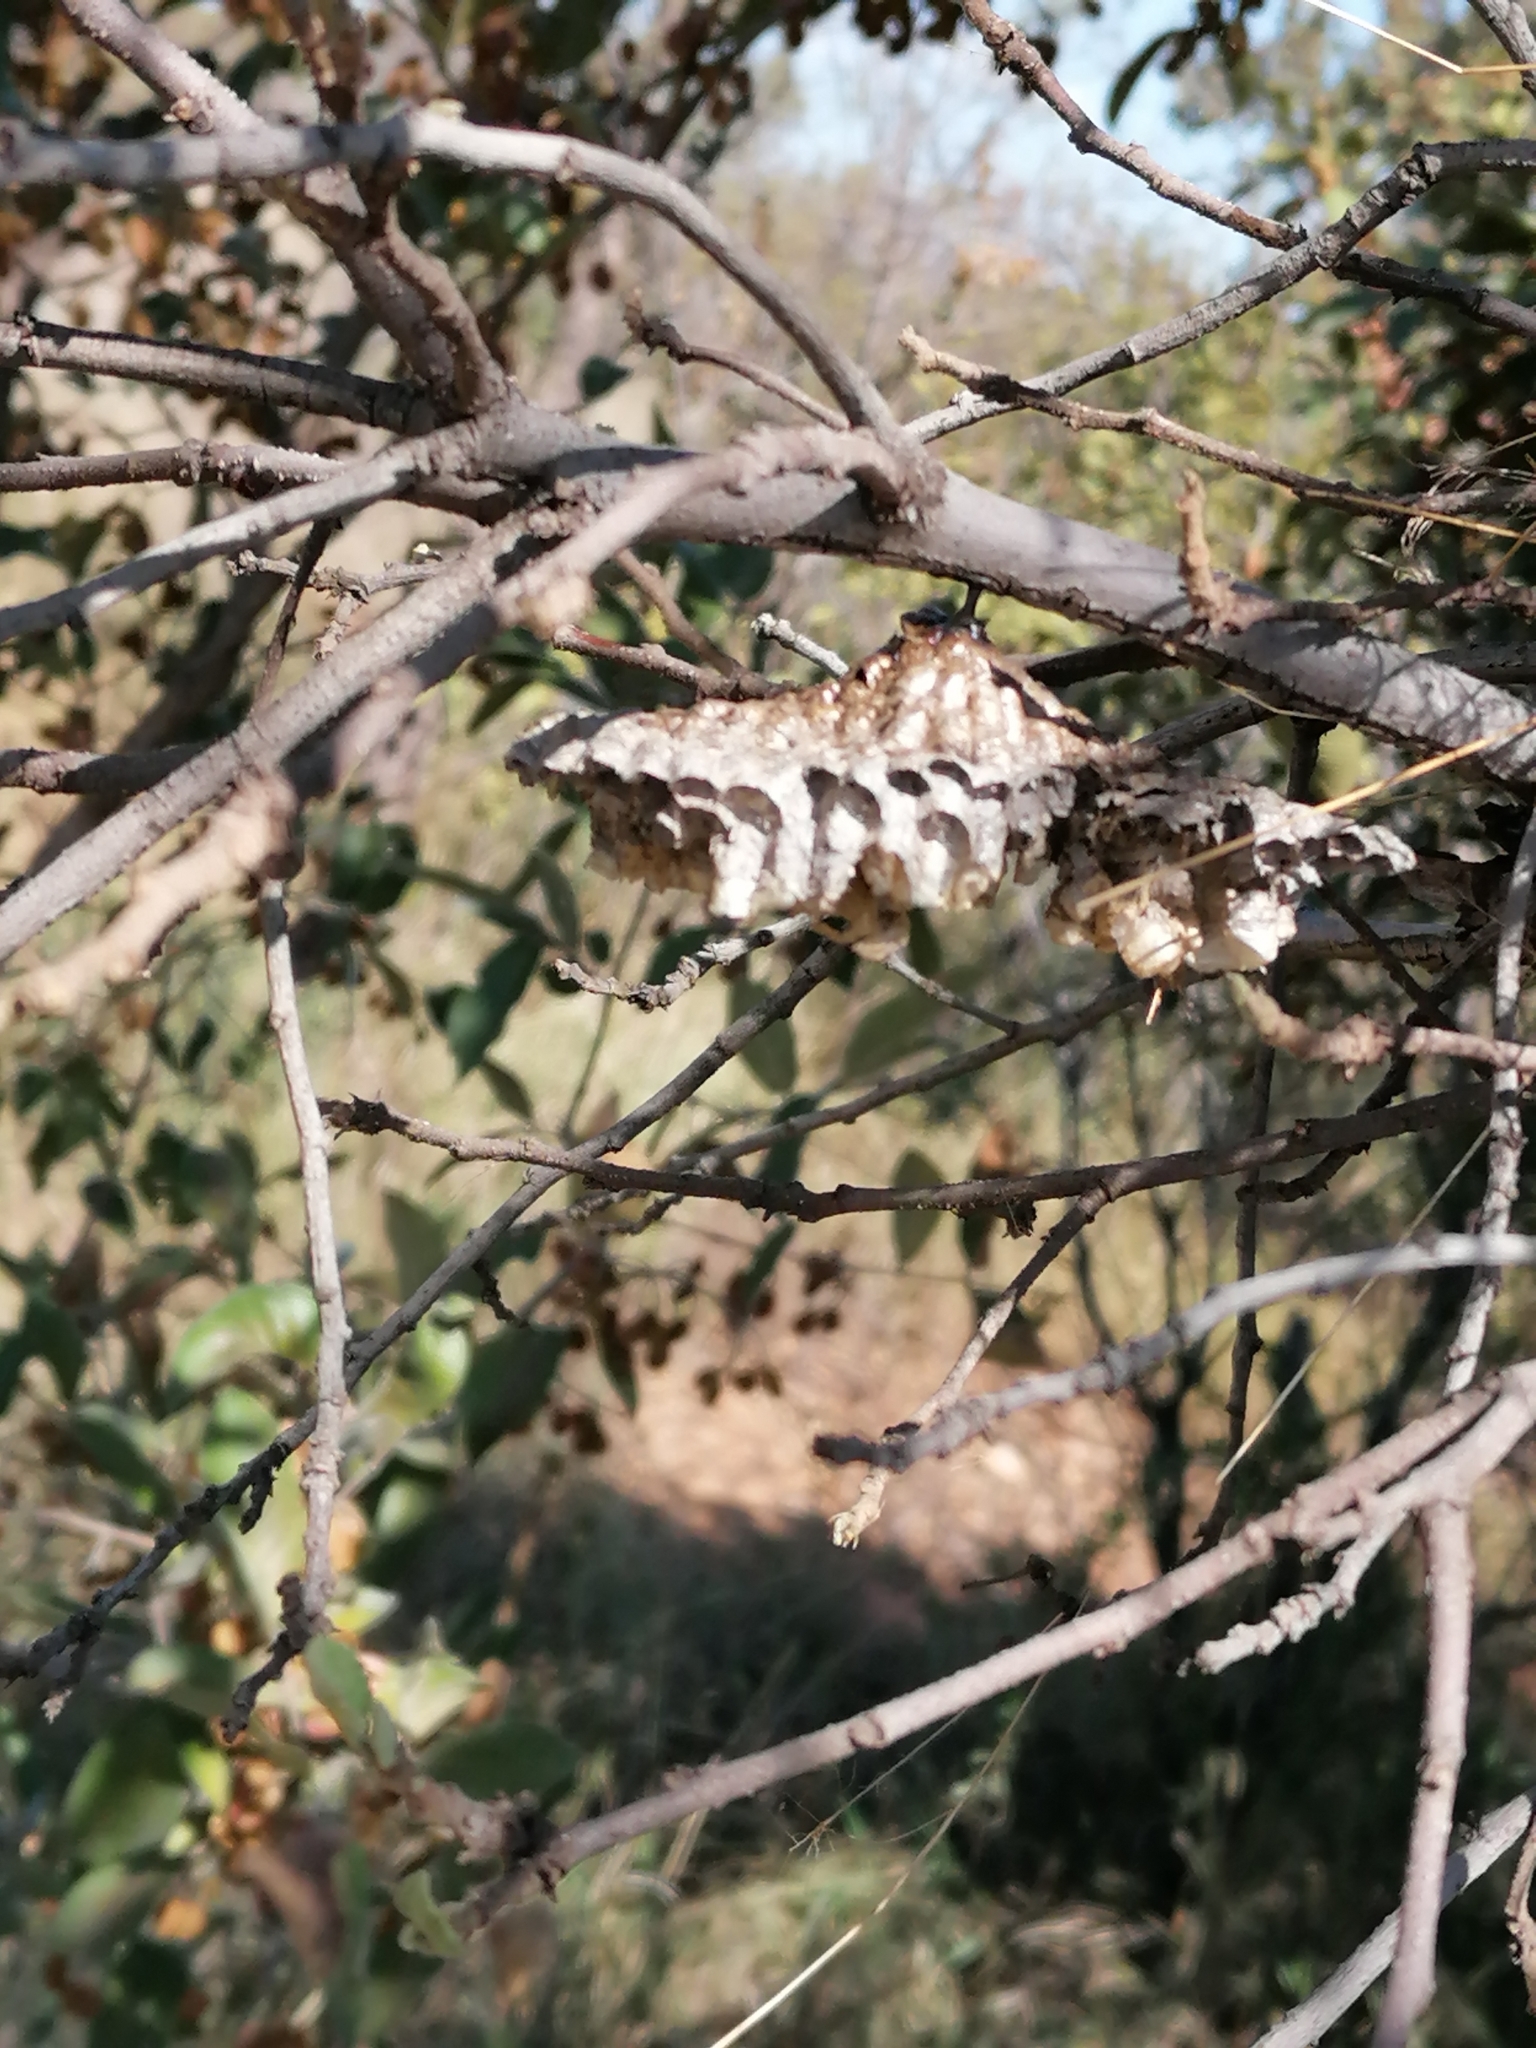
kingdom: Animalia
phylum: Arthropoda
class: Insecta
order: Hymenoptera
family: Vespidae
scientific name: Vespidae
